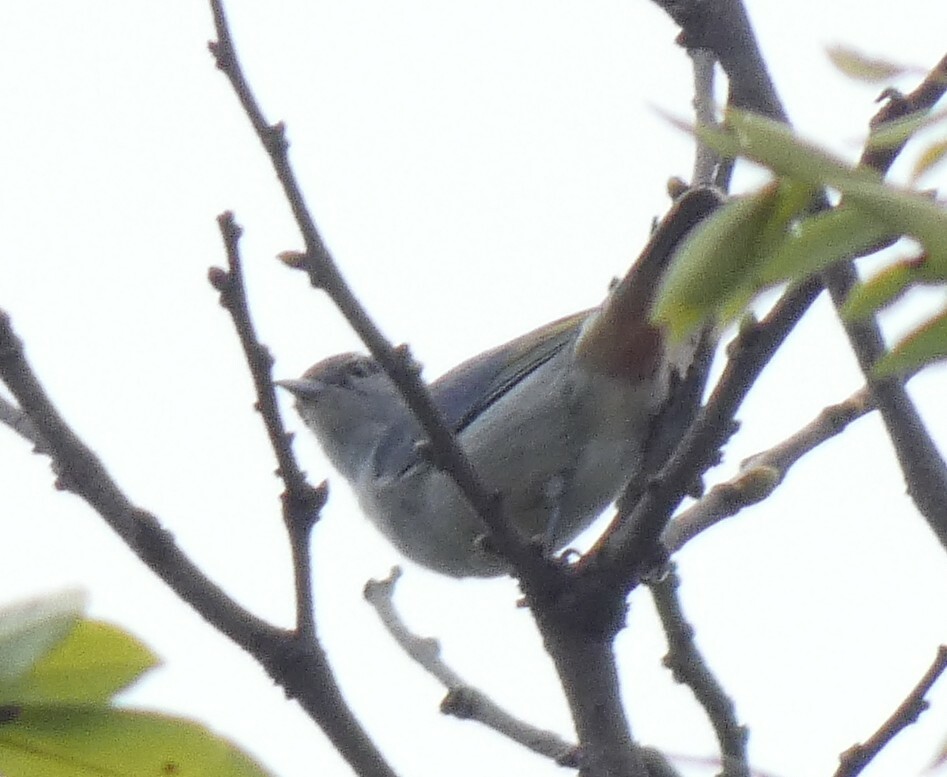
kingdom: Animalia
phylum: Chordata
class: Aves
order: Passeriformes
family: Thraupidae
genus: Conirostrum
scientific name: Conirostrum speciosum
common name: Chestnut-vented conebill
